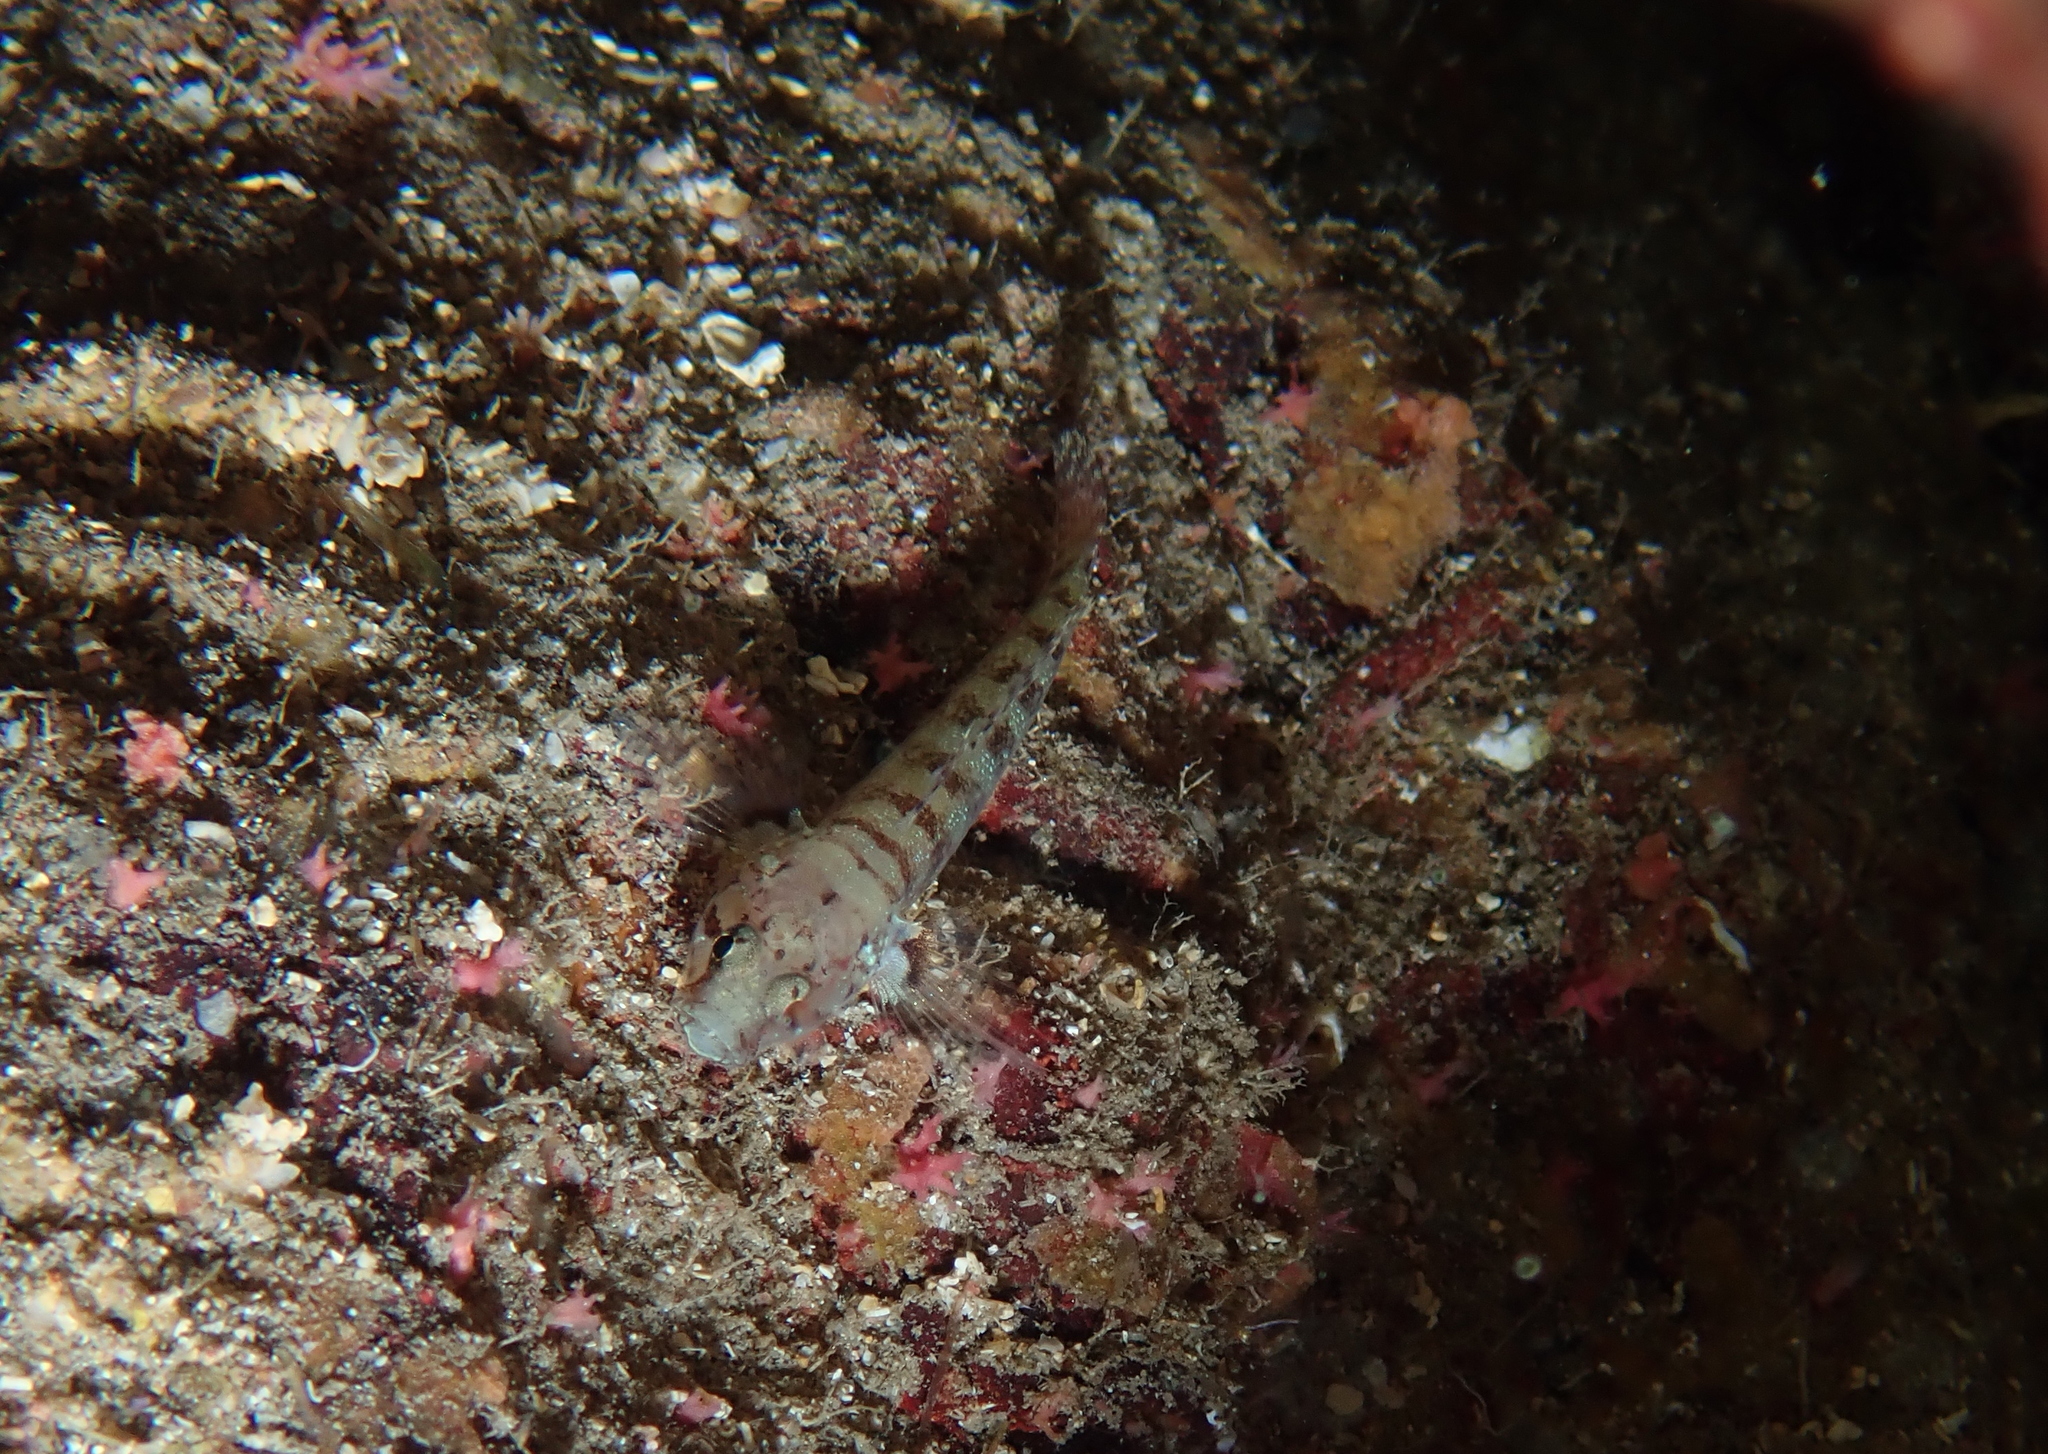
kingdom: Animalia
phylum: Chordata
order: Perciformes
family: Gobiidae
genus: Chromogobius
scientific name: Chromogobius zebratus
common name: Kolombatovic's goby
